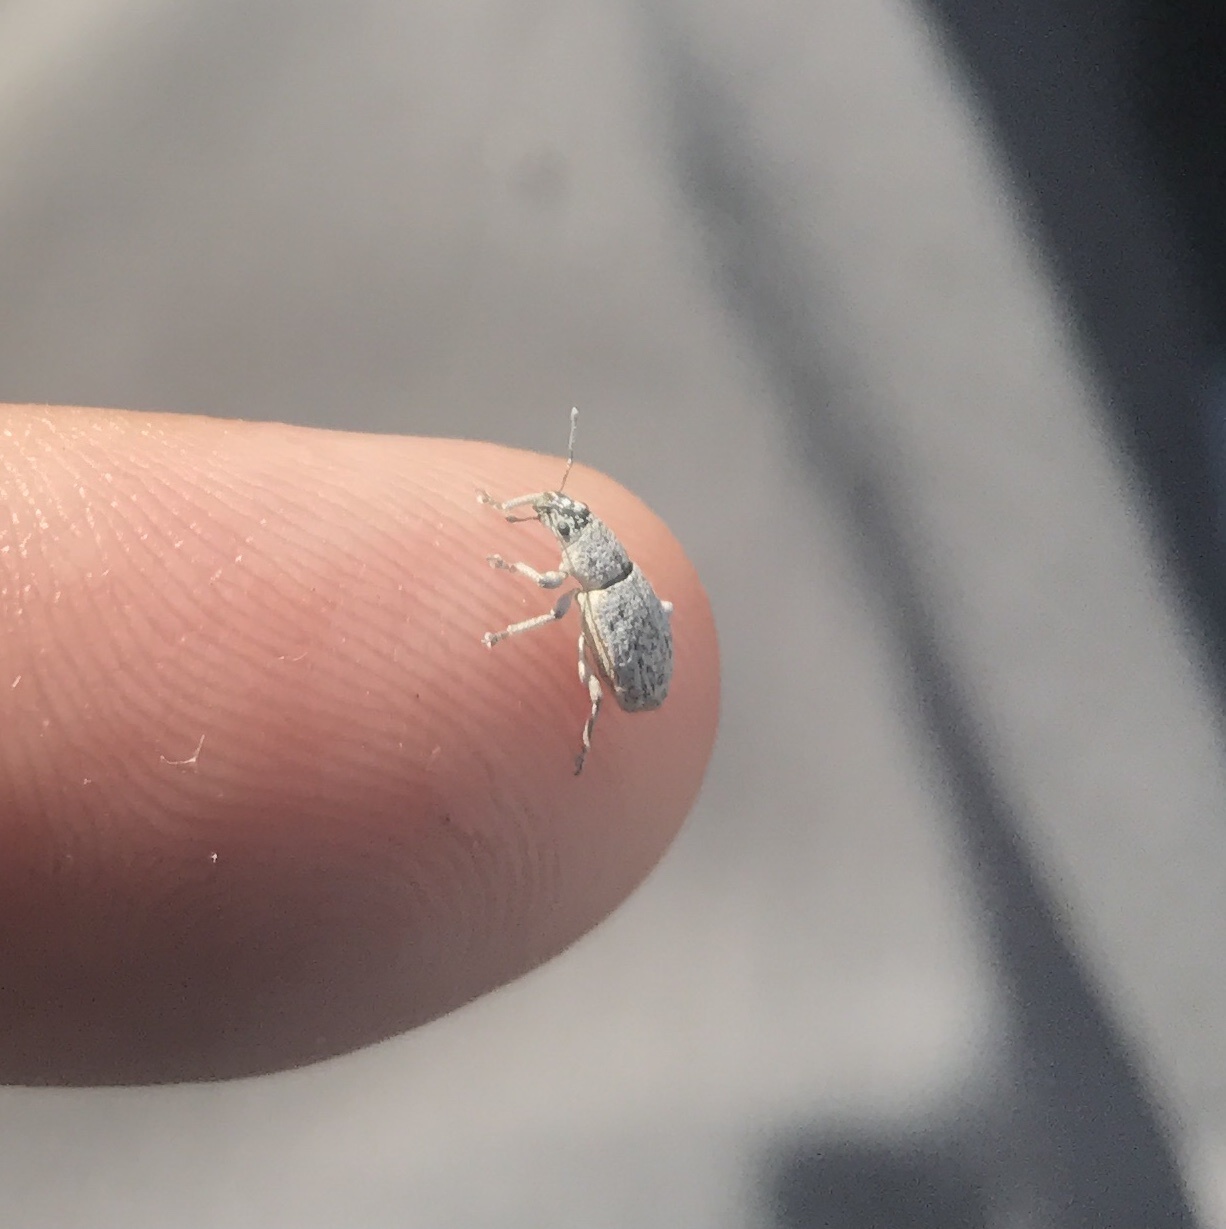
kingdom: Animalia
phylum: Arthropoda
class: Insecta
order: Coleoptera
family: Curculionidae
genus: Artipus
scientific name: Artipus floridanus
